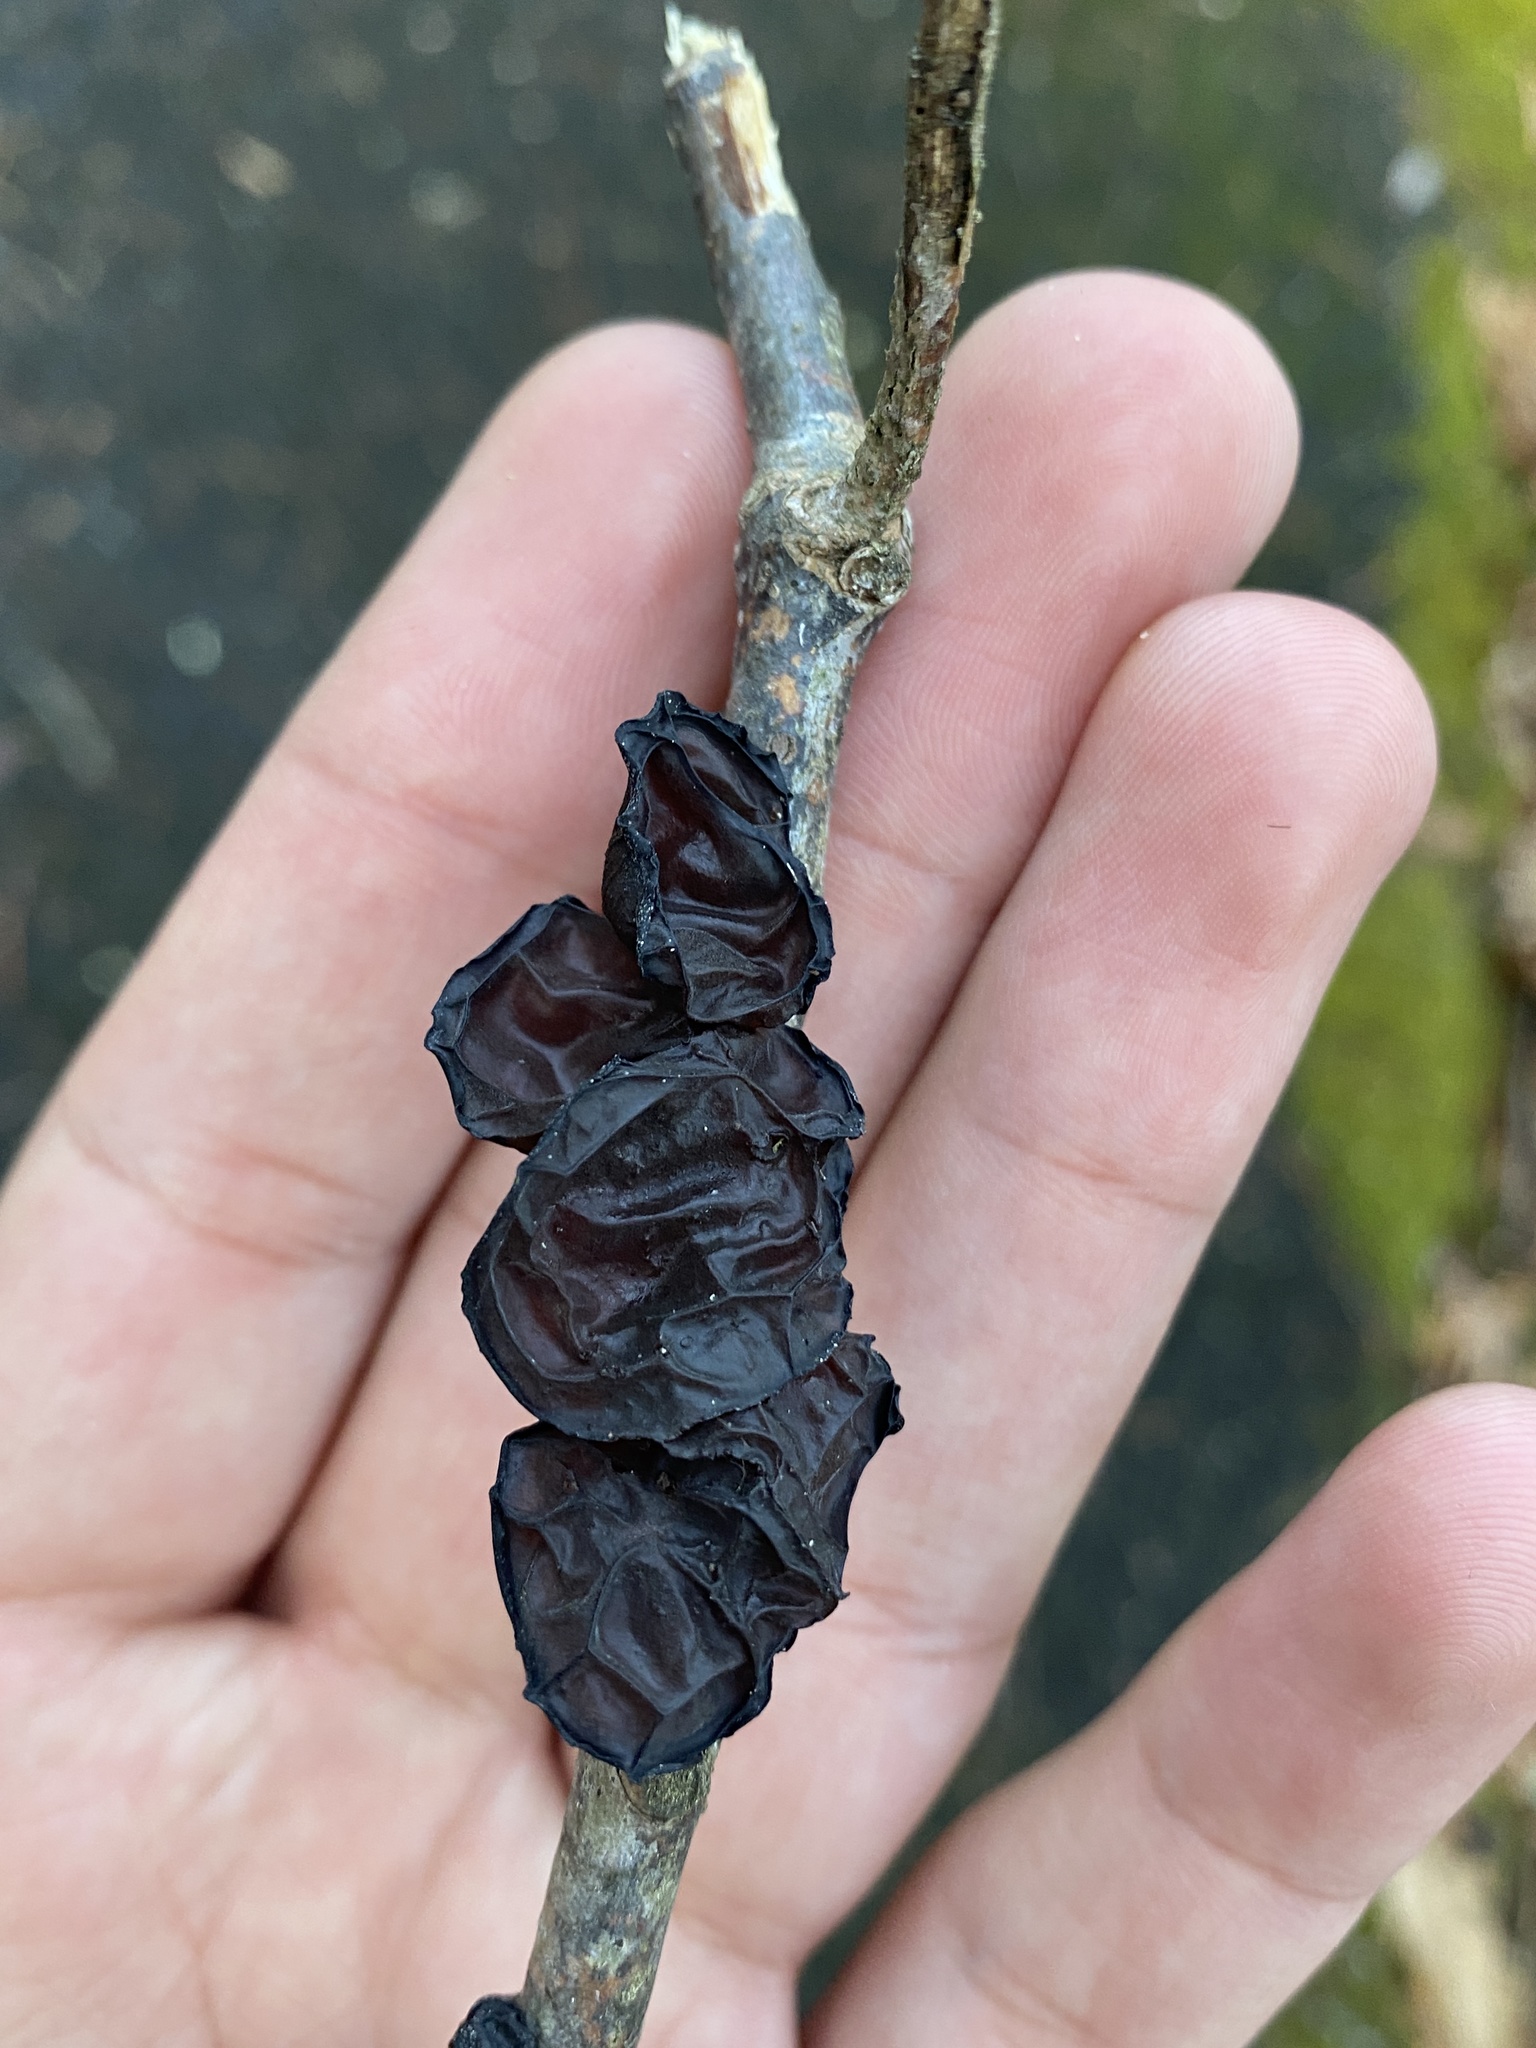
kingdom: Fungi
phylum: Basidiomycota
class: Agaricomycetes
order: Auriculariales
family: Auriculariaceae
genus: Exidia
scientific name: Exidia
